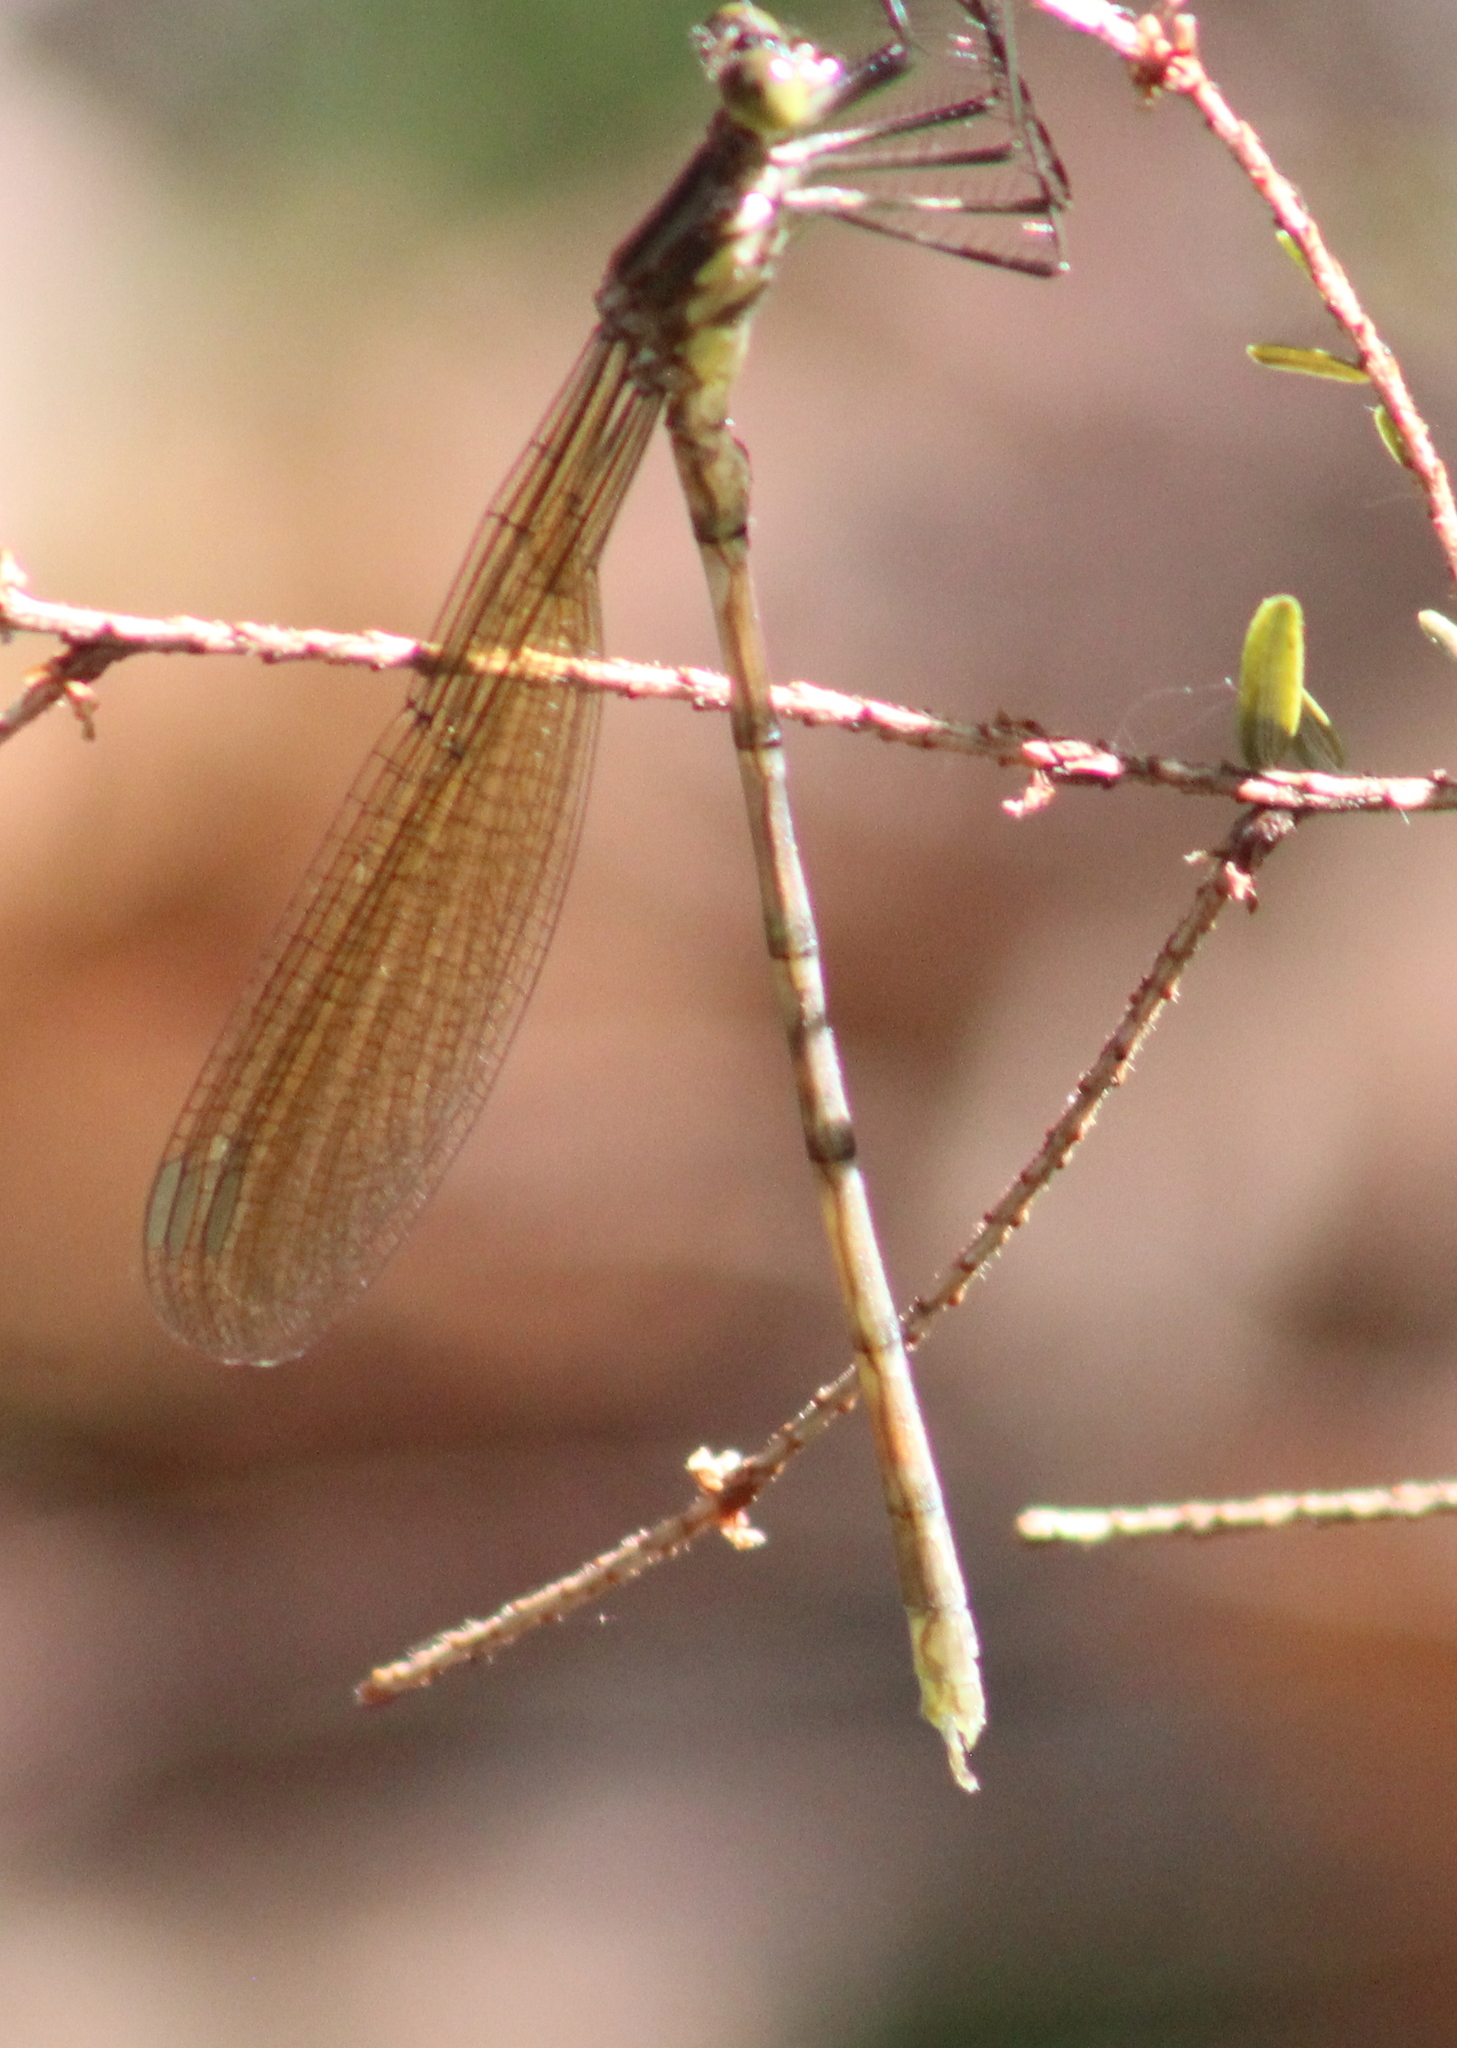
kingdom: Animalia
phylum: Arthropoda
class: Insecta
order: Odonata
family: Lestidae
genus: Lestes
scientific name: Lestes eurinus
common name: Amber-winged spreadwing
